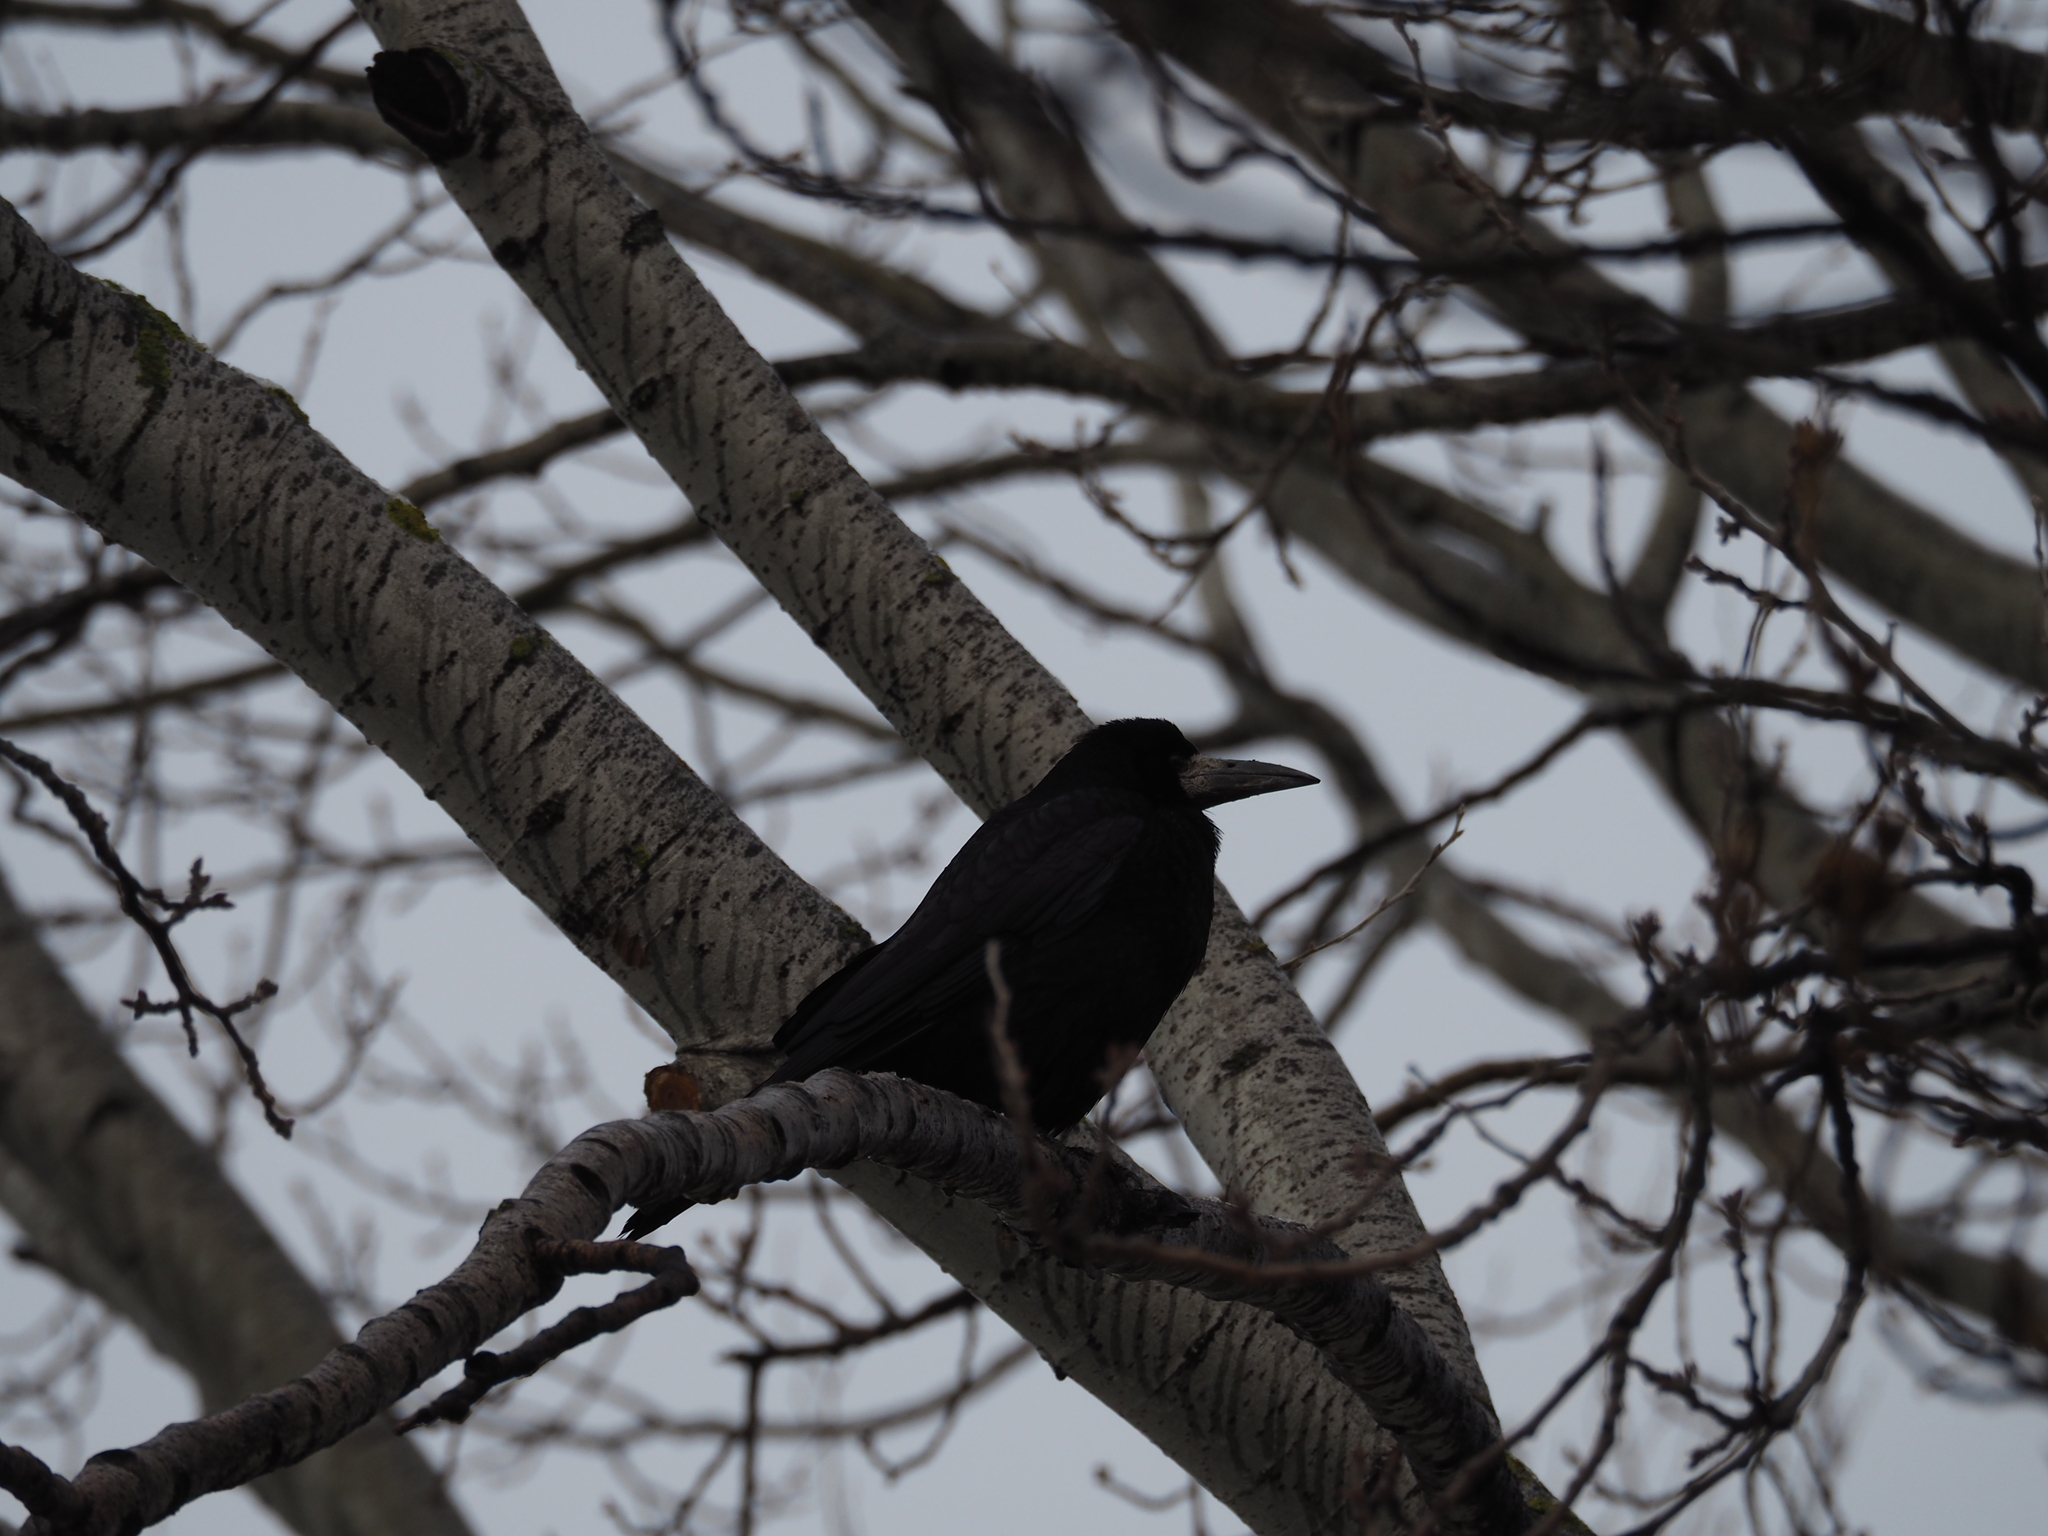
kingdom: Animalia
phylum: Chordata
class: Aves
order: Passeriformes
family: Corvidae
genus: Corvus
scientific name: Corvus frugilegus
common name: Rook
